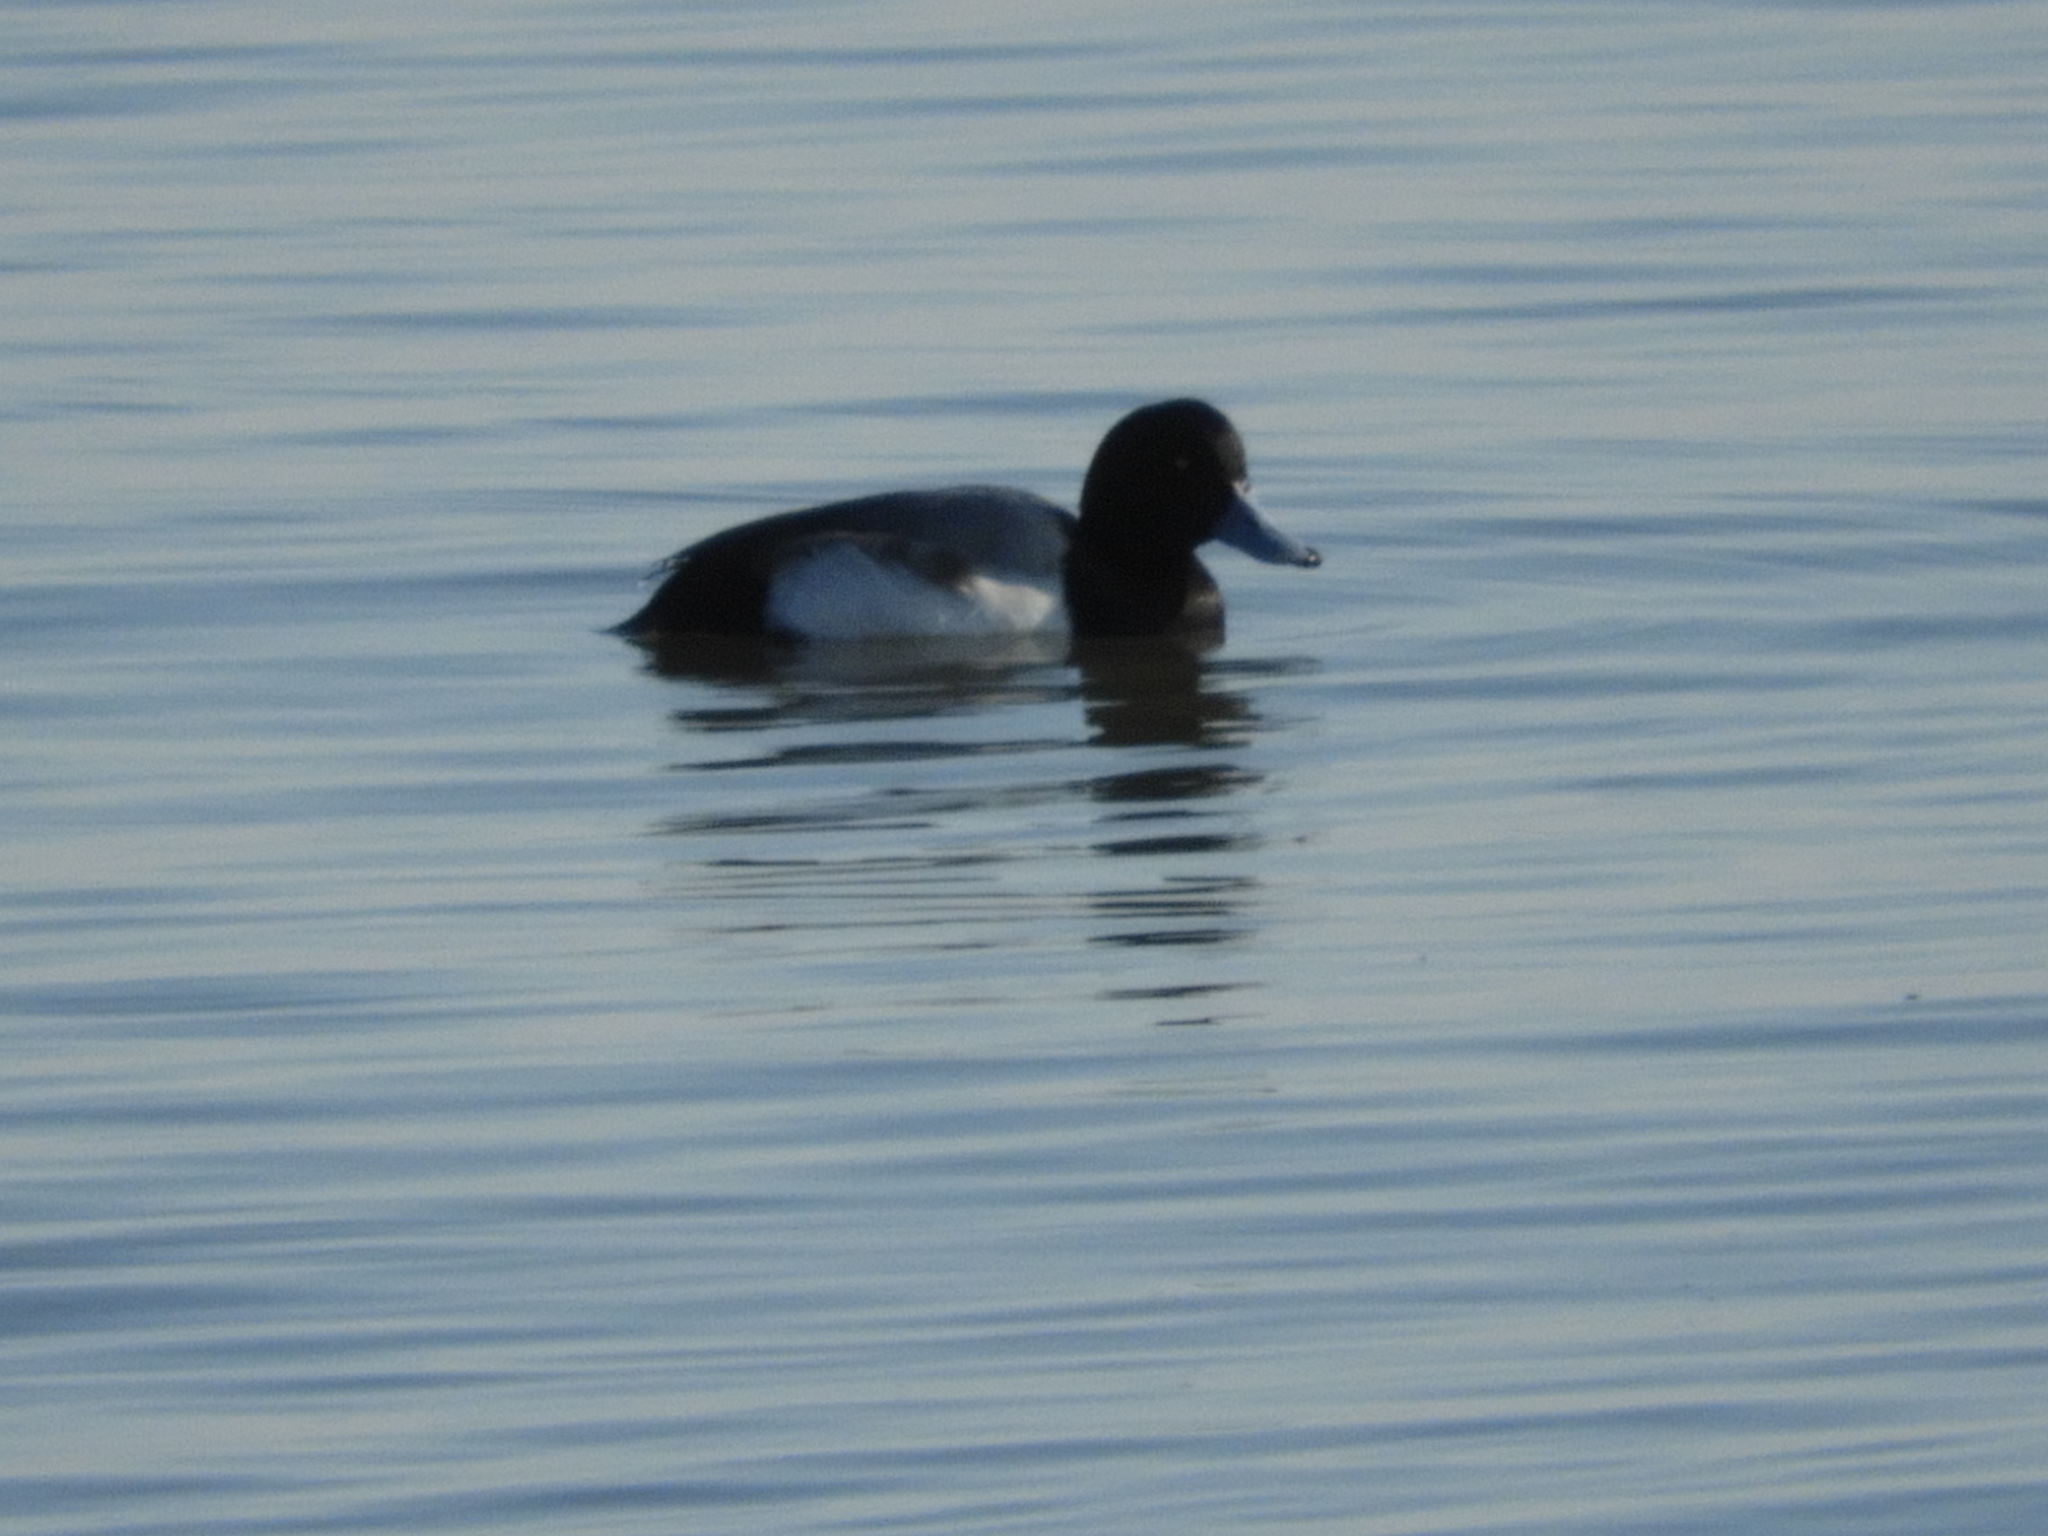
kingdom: Animalia
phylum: Chordata
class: Aves
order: Anseriformes
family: Anatidae
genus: Aythya
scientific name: Aythya marila
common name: Greater scaup
